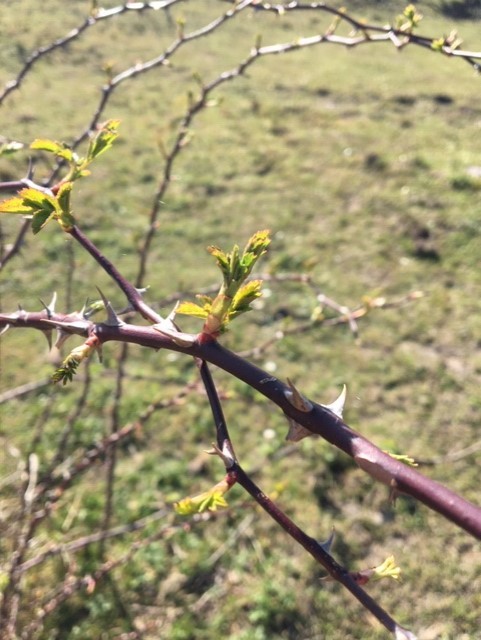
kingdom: Plantae
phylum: Tracheophyta
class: Magnoliopsida
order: Rosales
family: Rosaceae
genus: Rosa
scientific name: Rosa canina
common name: Dog rose
